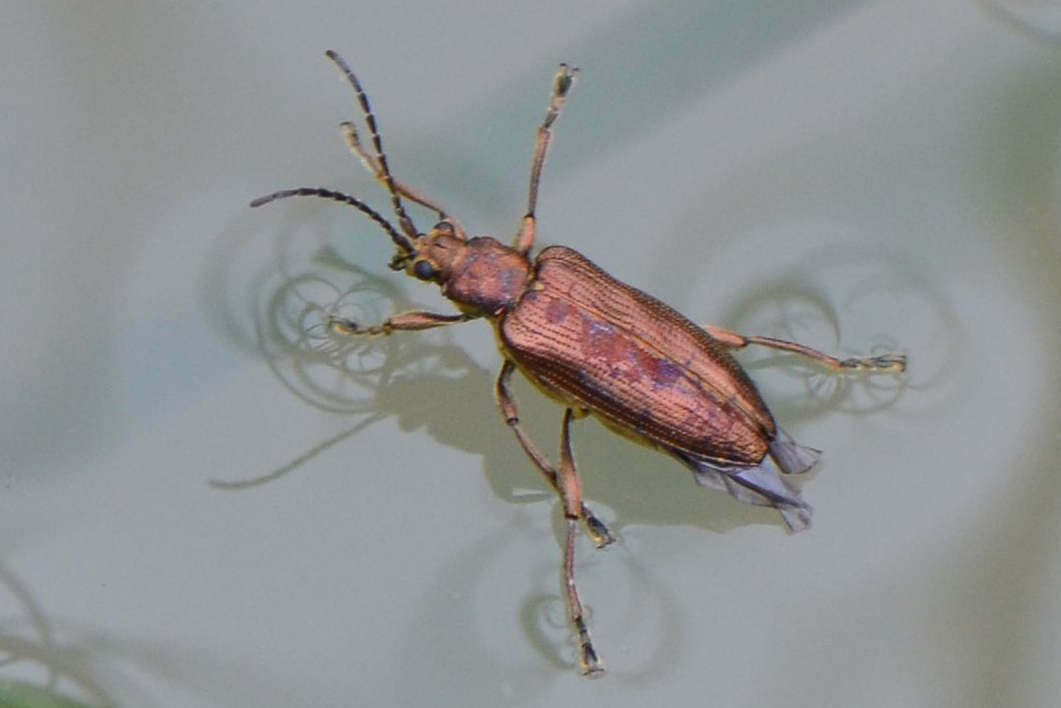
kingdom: Animalia
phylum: Arthropoda
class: Insecta
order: Coleoptera
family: Chrysomelidae
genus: Donacia
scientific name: Donacia marginata
